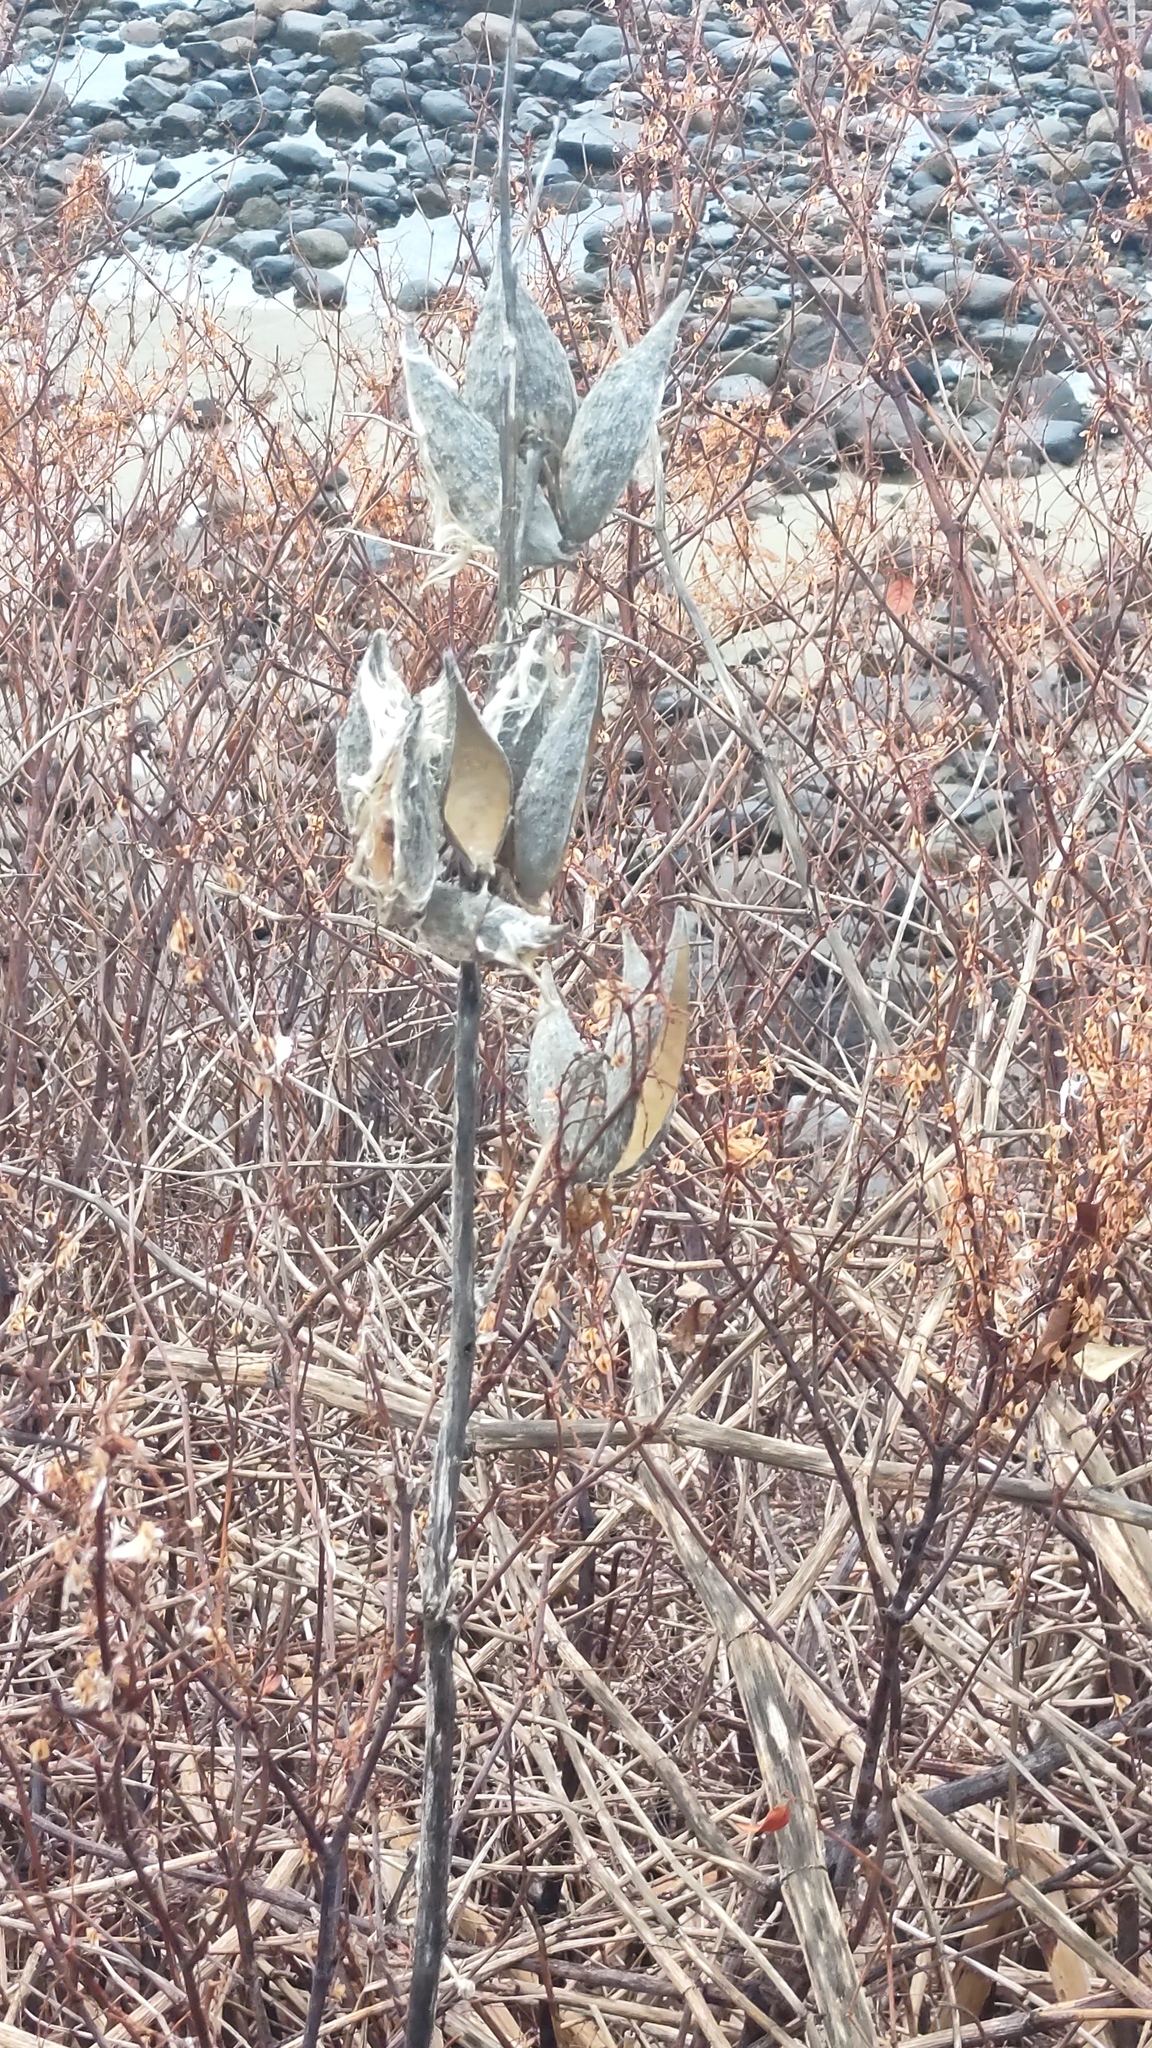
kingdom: Plantae
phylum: Tracheophyta
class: Magnoliopsida
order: Gentianales
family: Apocynaceae
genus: Asclepias
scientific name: Asclepias syriaca
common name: Common milkweed
